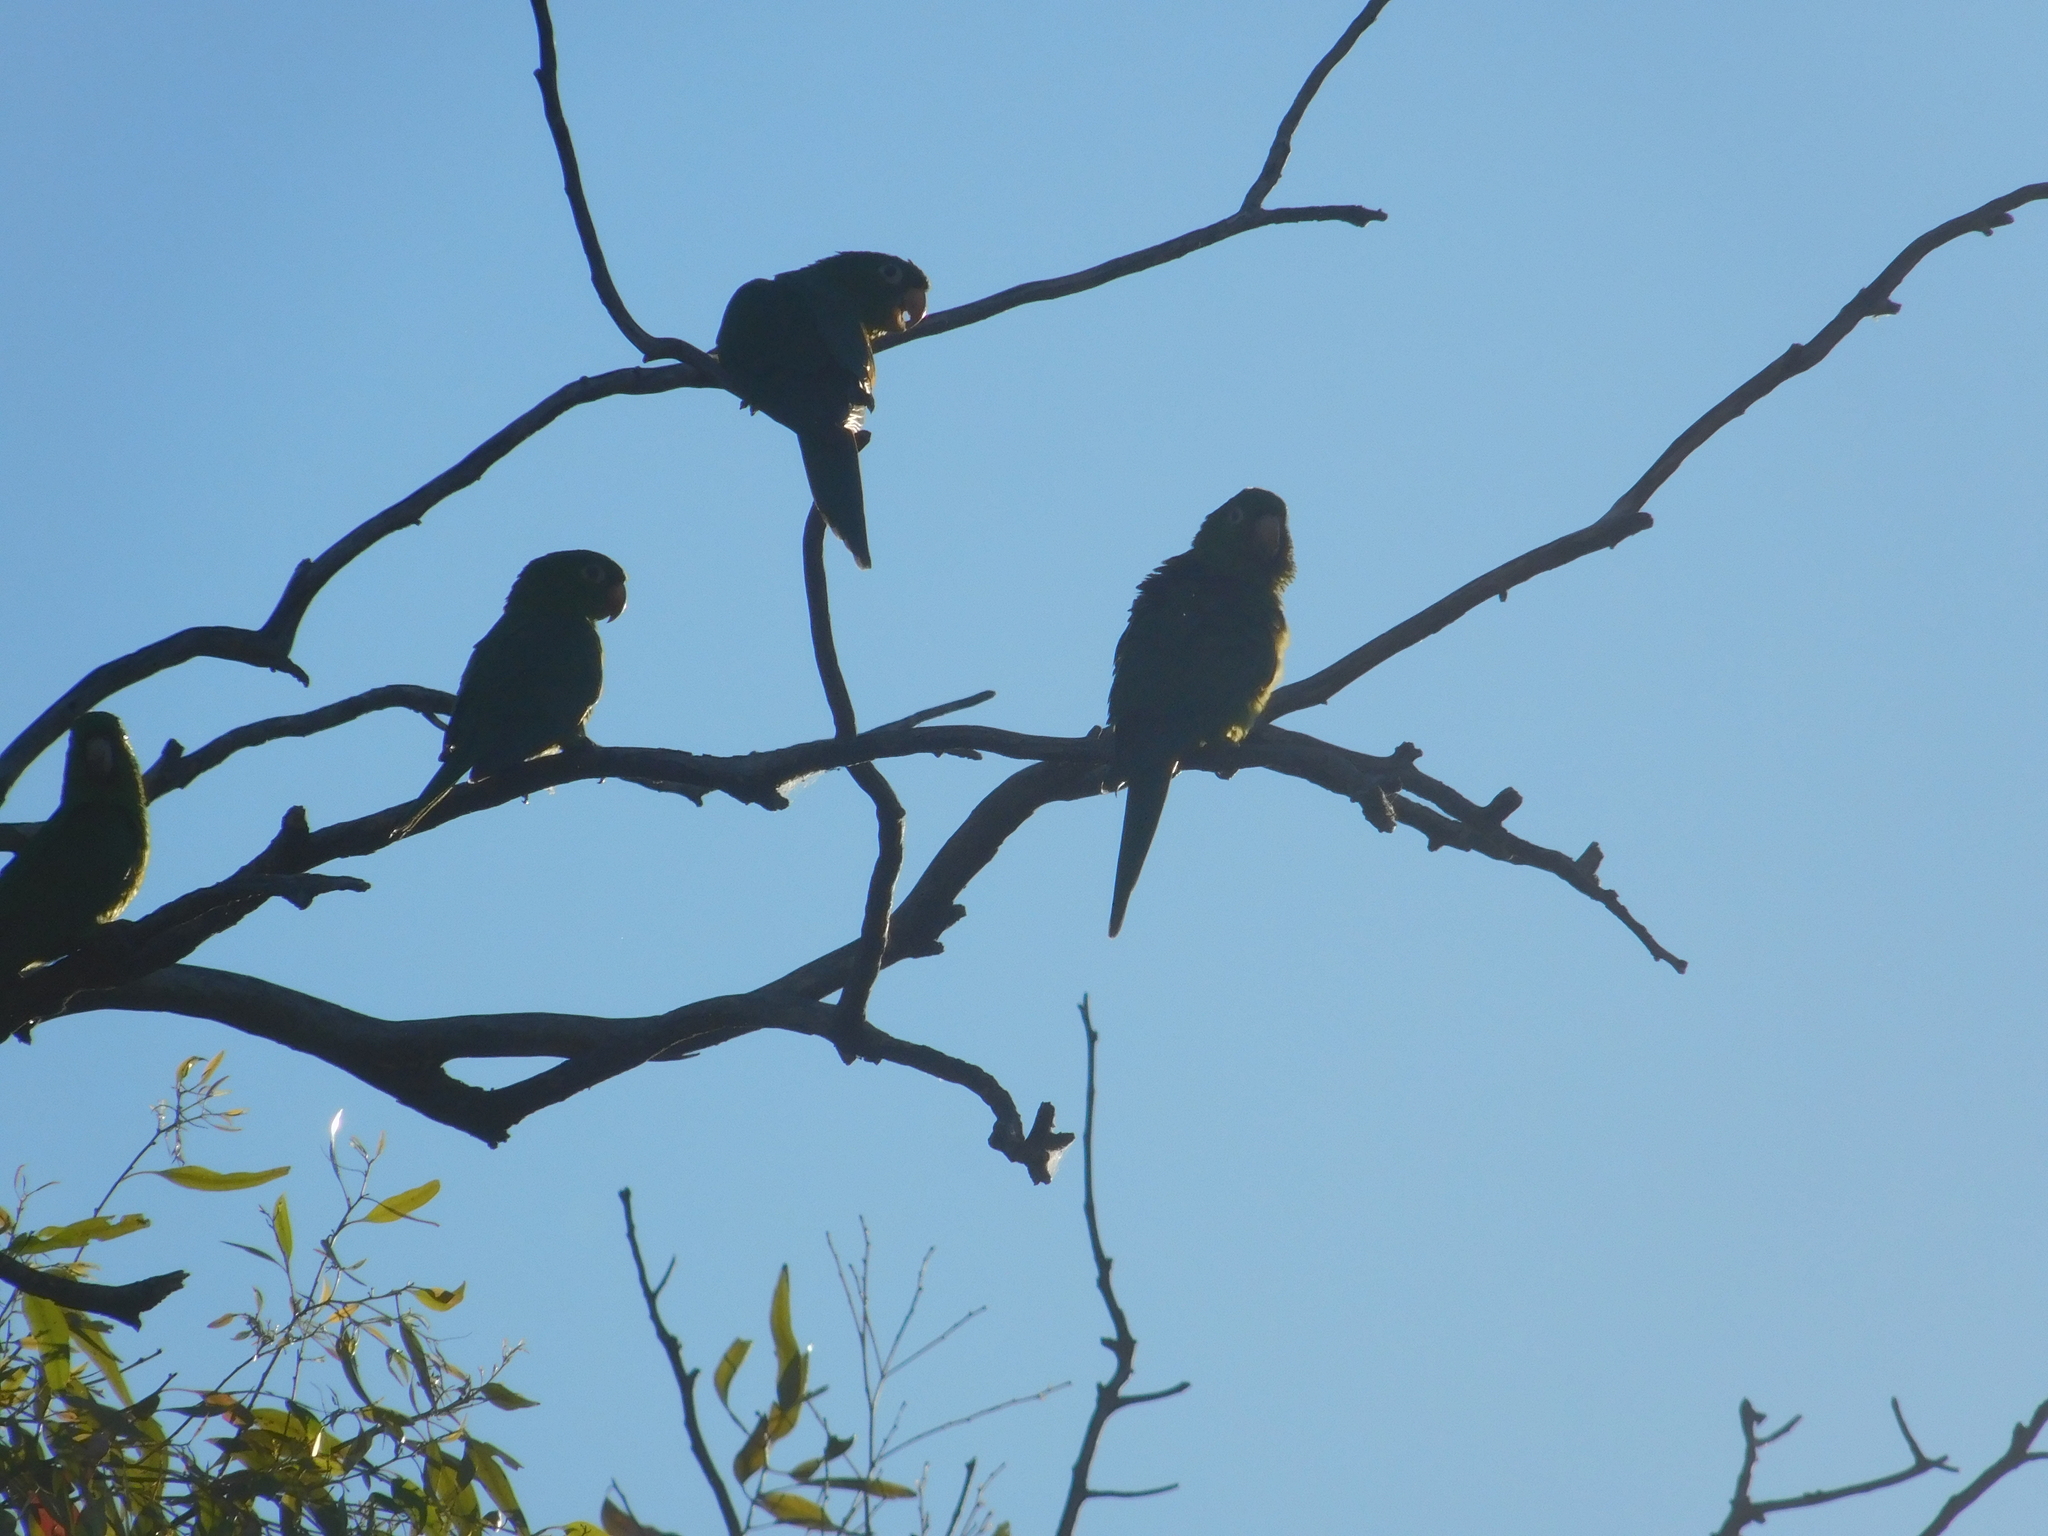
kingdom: Animalia
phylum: Chordata
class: Aves
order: Psittaciformes
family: Psittacidae
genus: Aratinga
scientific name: Aratinga leucophthalma
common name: White-eyed parakeet
